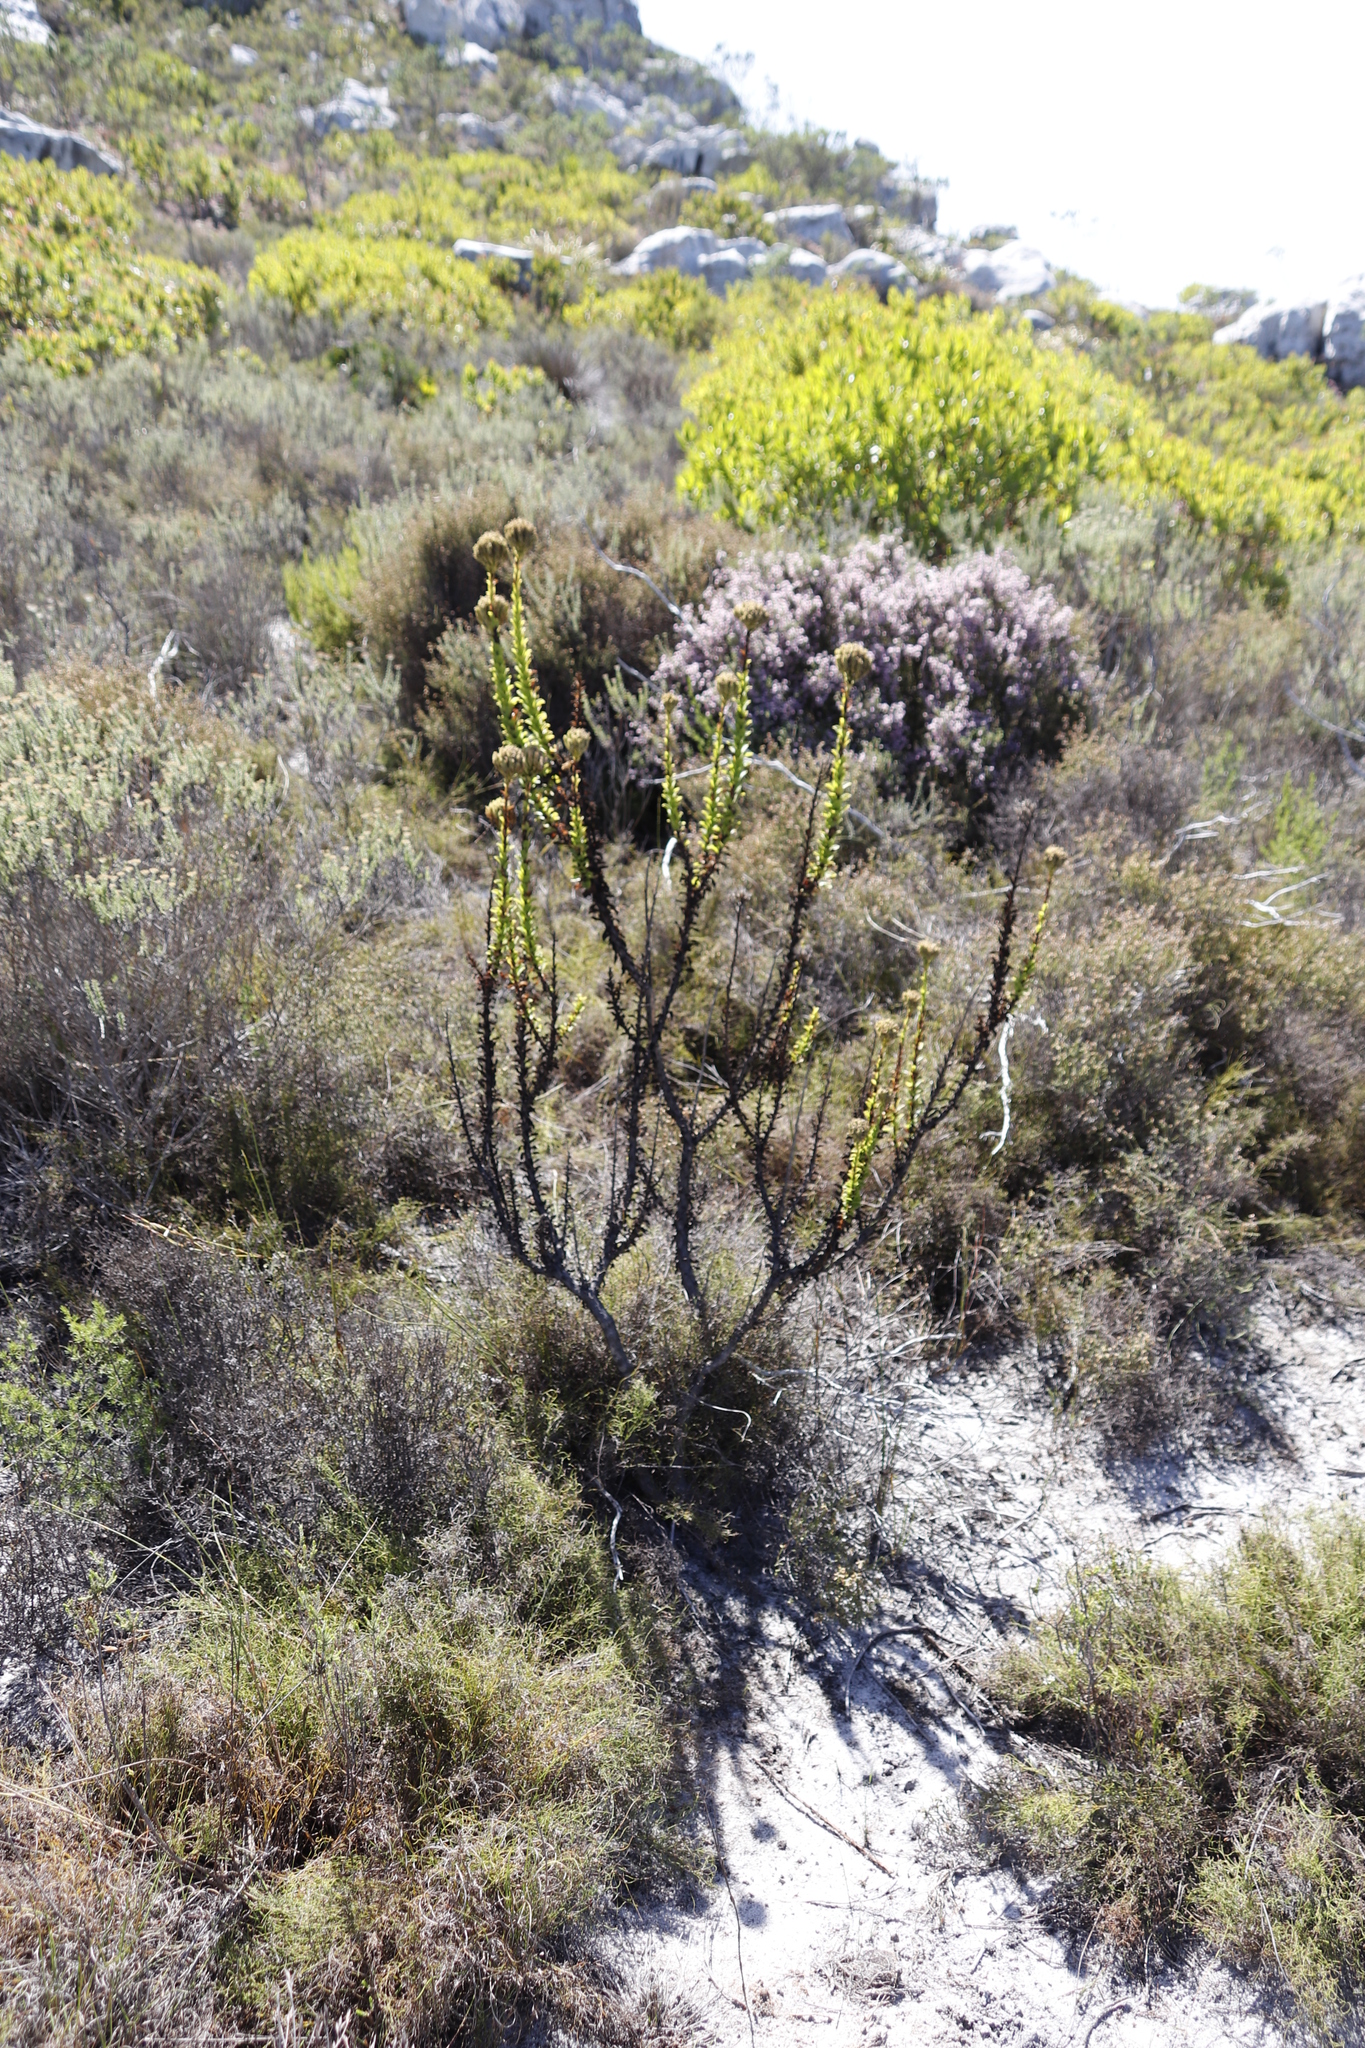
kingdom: Plantae
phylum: Tracheophyta
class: Magnoliopsida
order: Lamiales
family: Scrophulariaceae
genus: Pseudoselago
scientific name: Pseudoselago serrata
